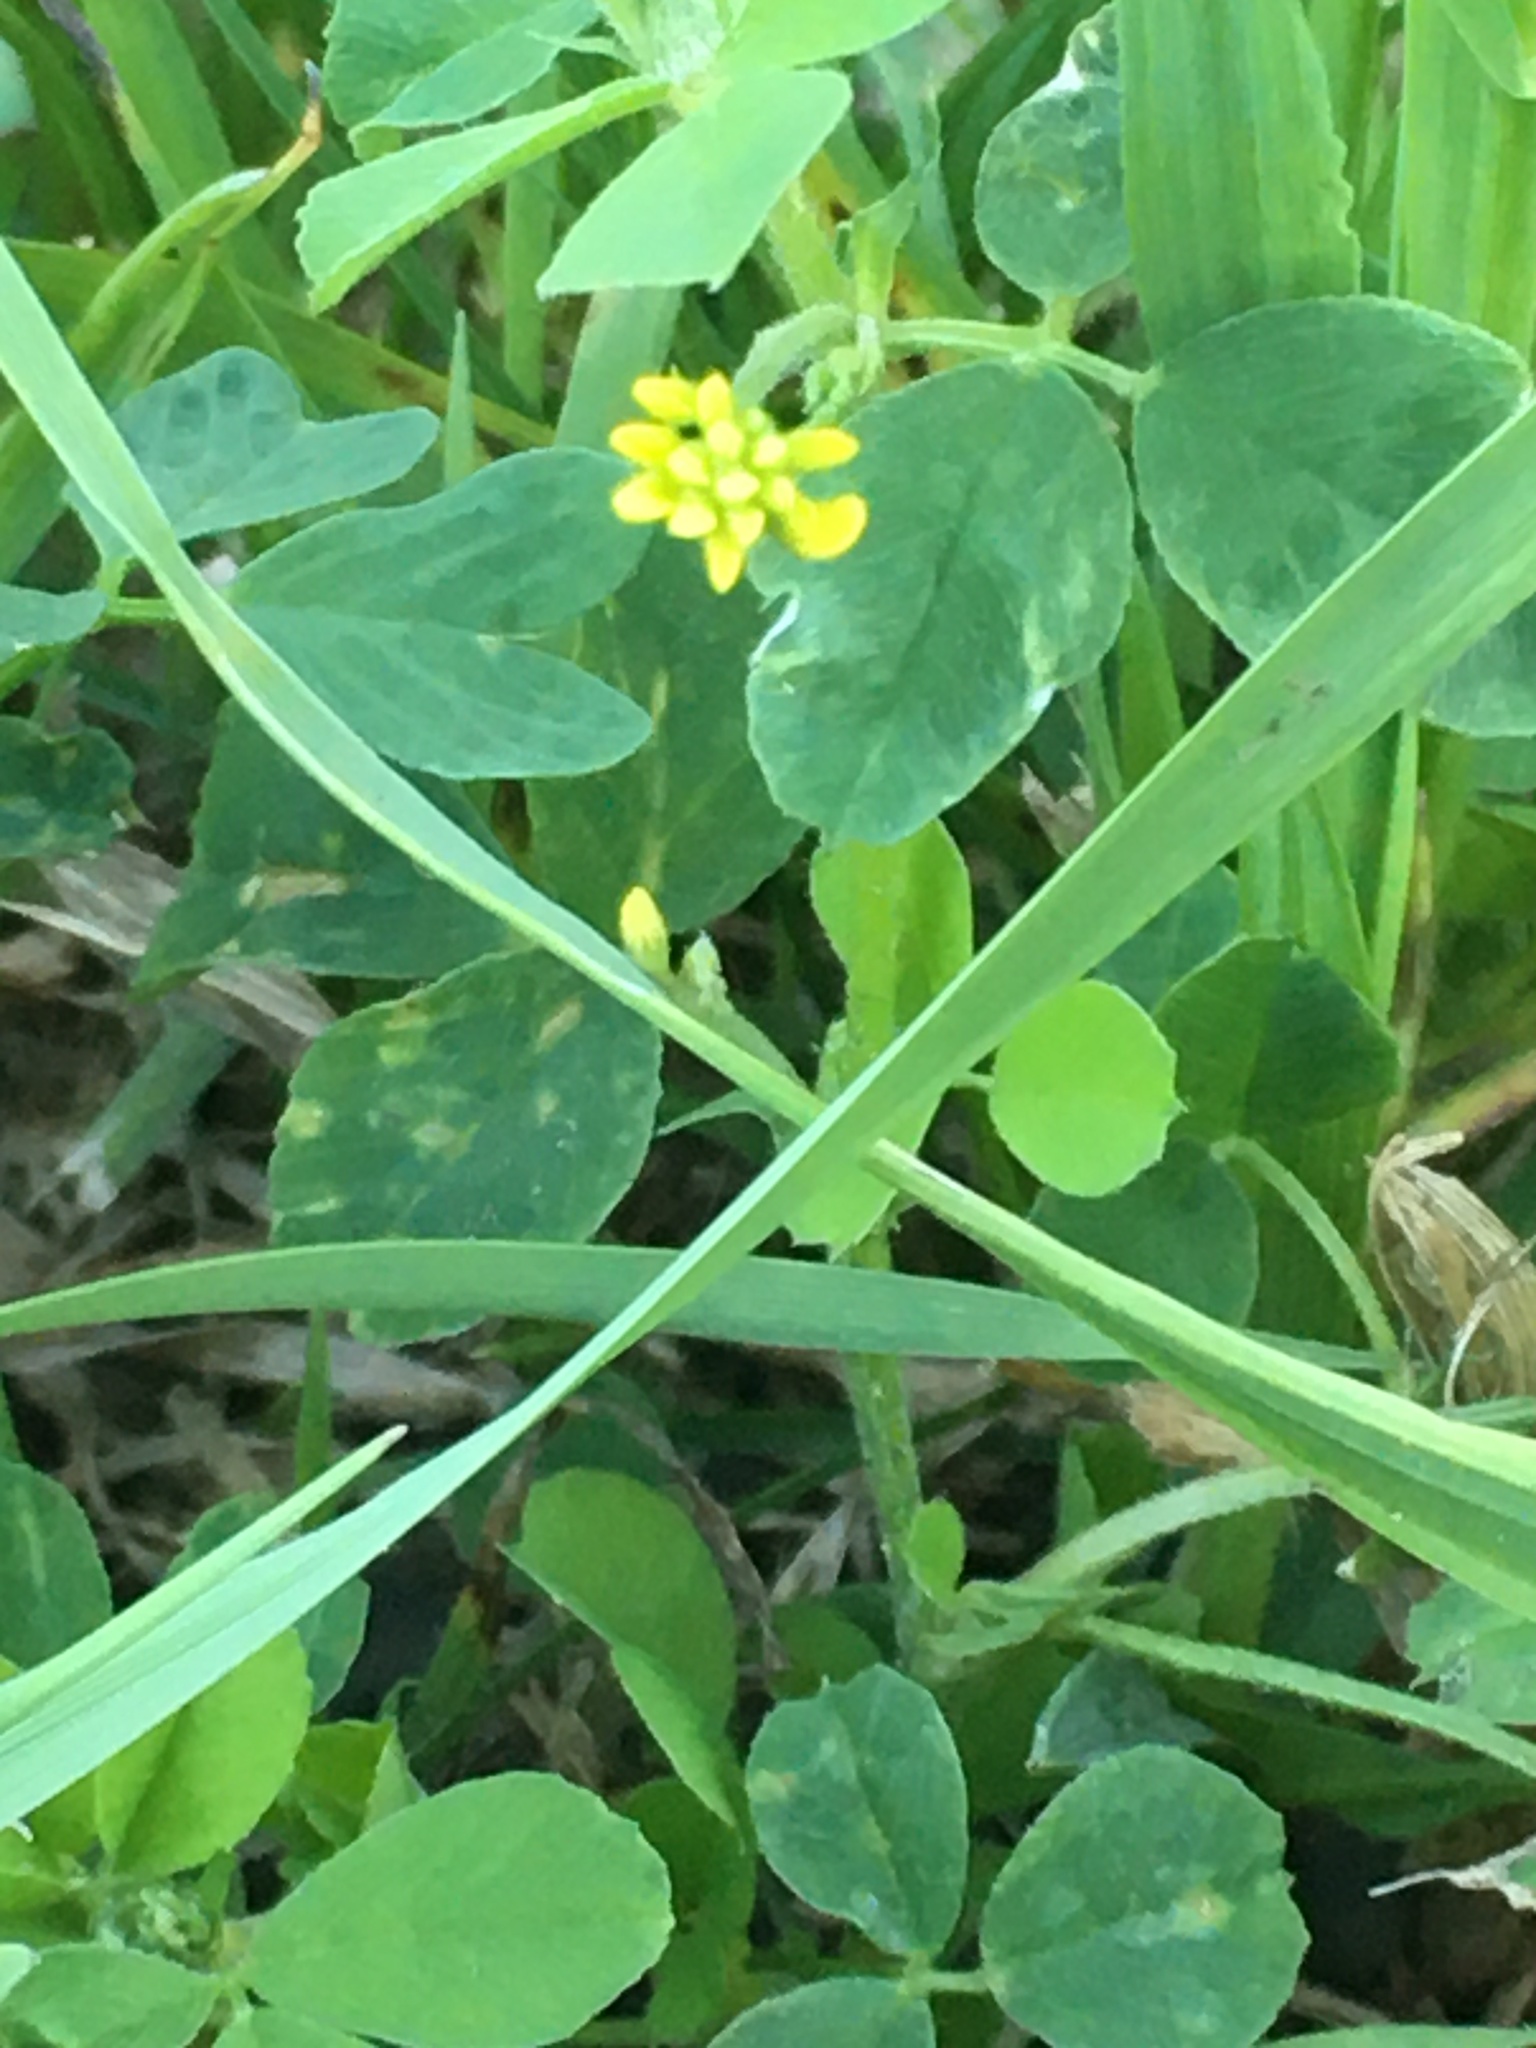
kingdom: Plantae
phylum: Tracheophyta
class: Magnoliopsida
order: Fabales
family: Fabaceae
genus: Medicago
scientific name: Medicago lupulina
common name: Black medick
